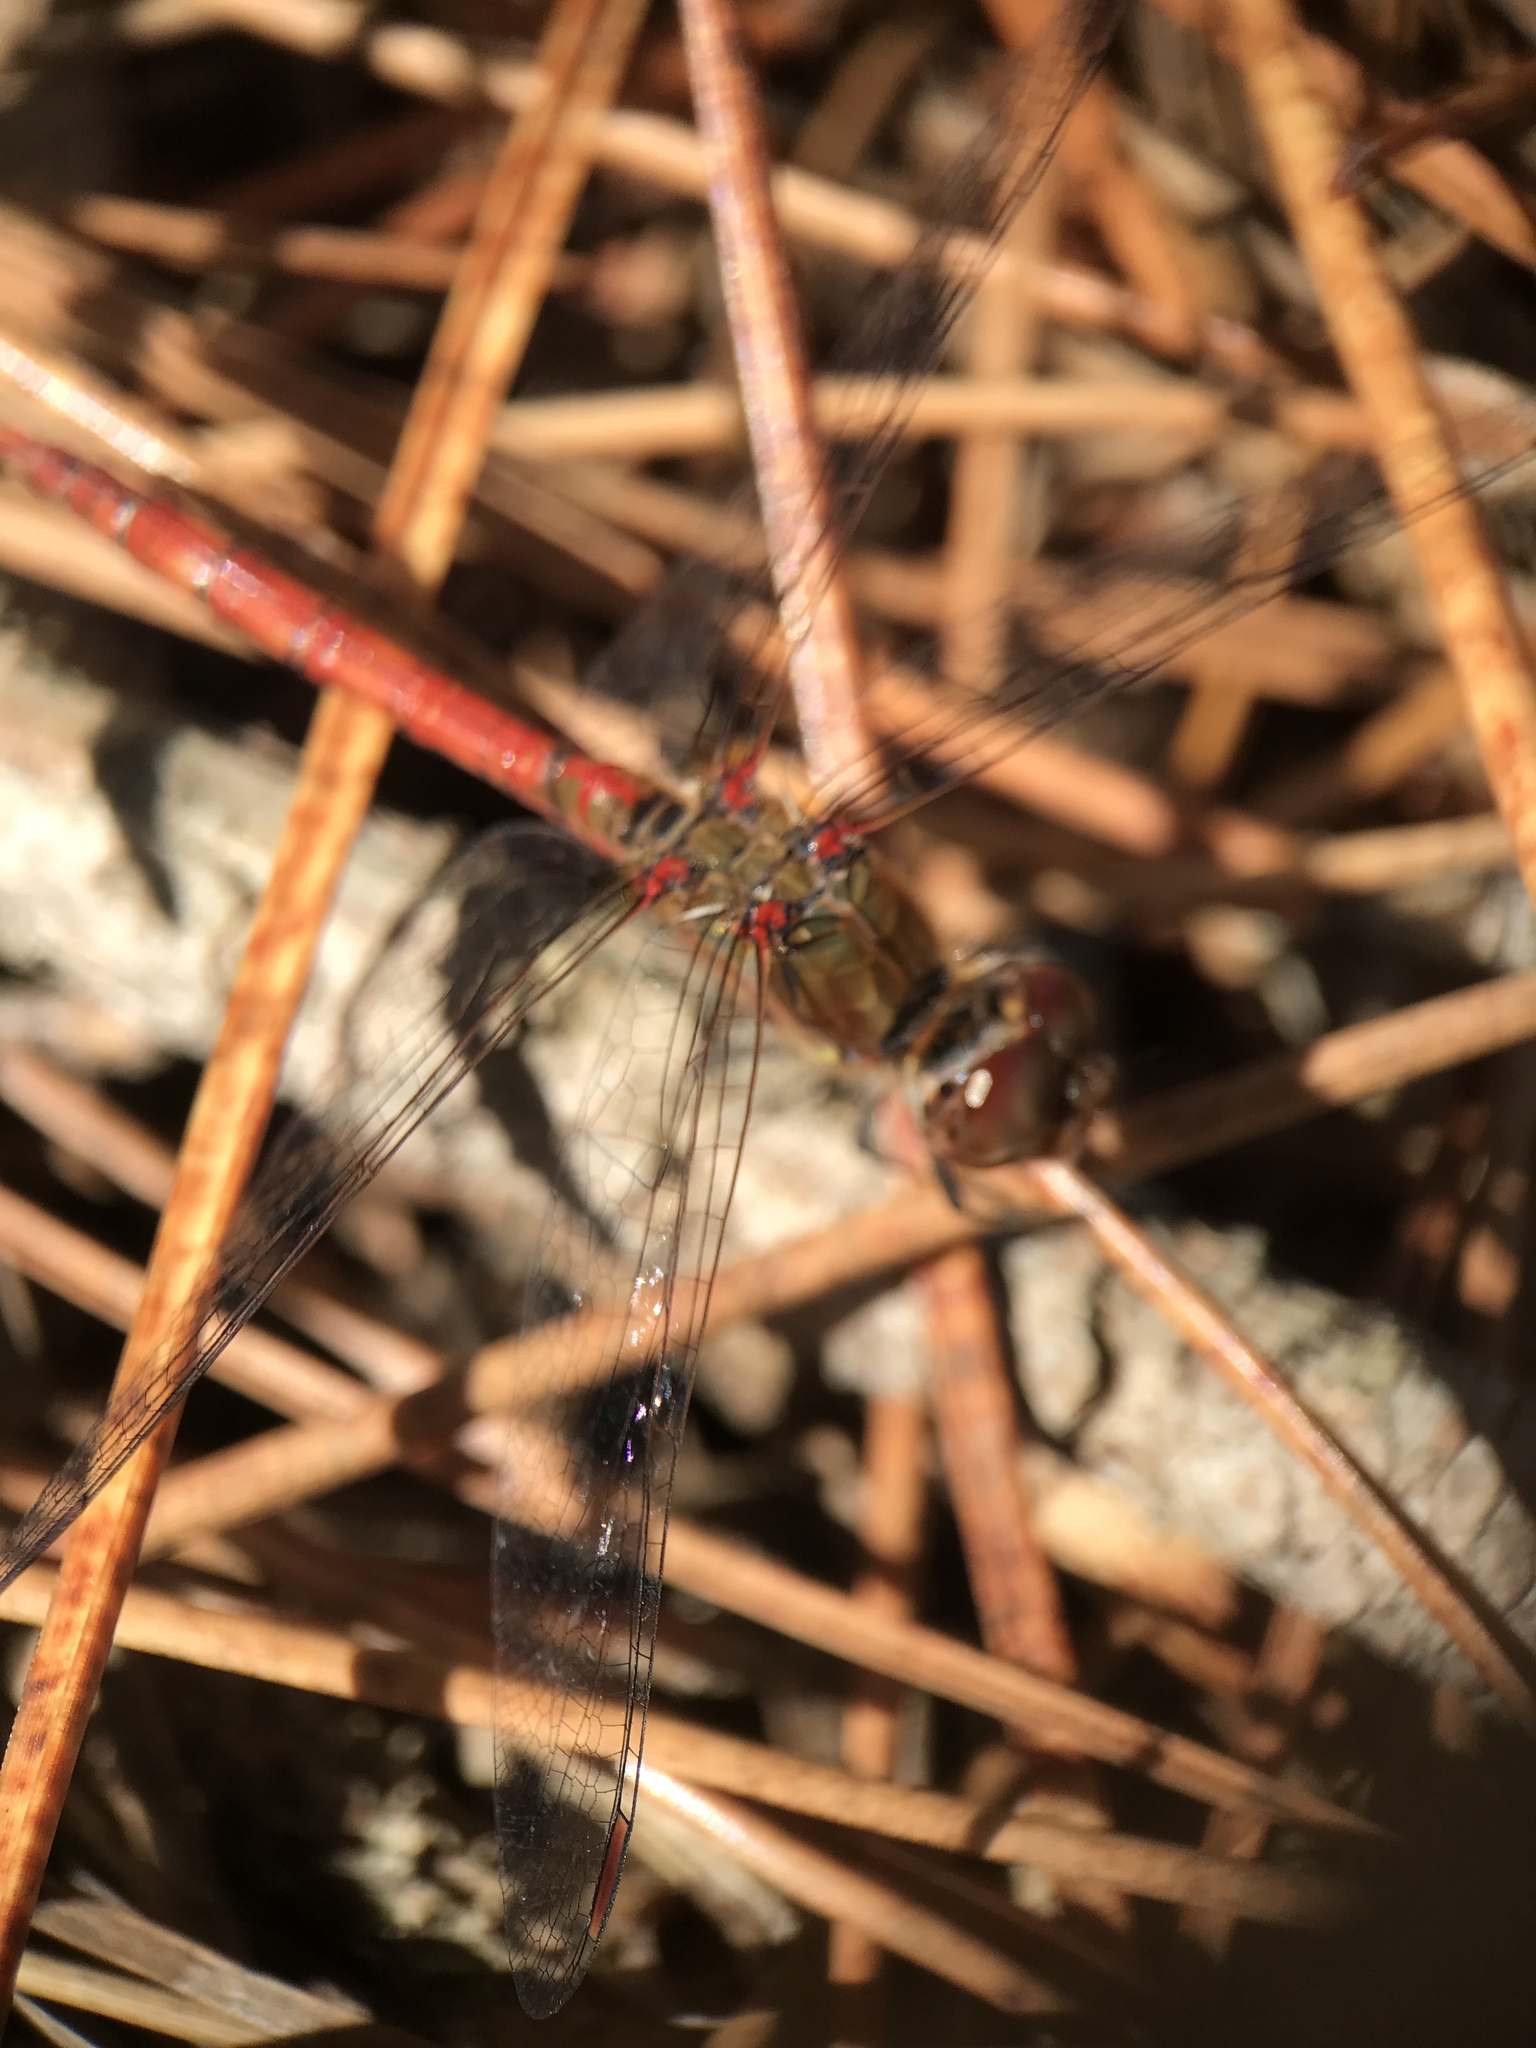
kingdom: Animalia
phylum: Arthropoda
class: Insecta
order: Odonata
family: Libellulidae
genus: Sympetrum
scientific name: Sympetrum striolatum
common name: Common darter
